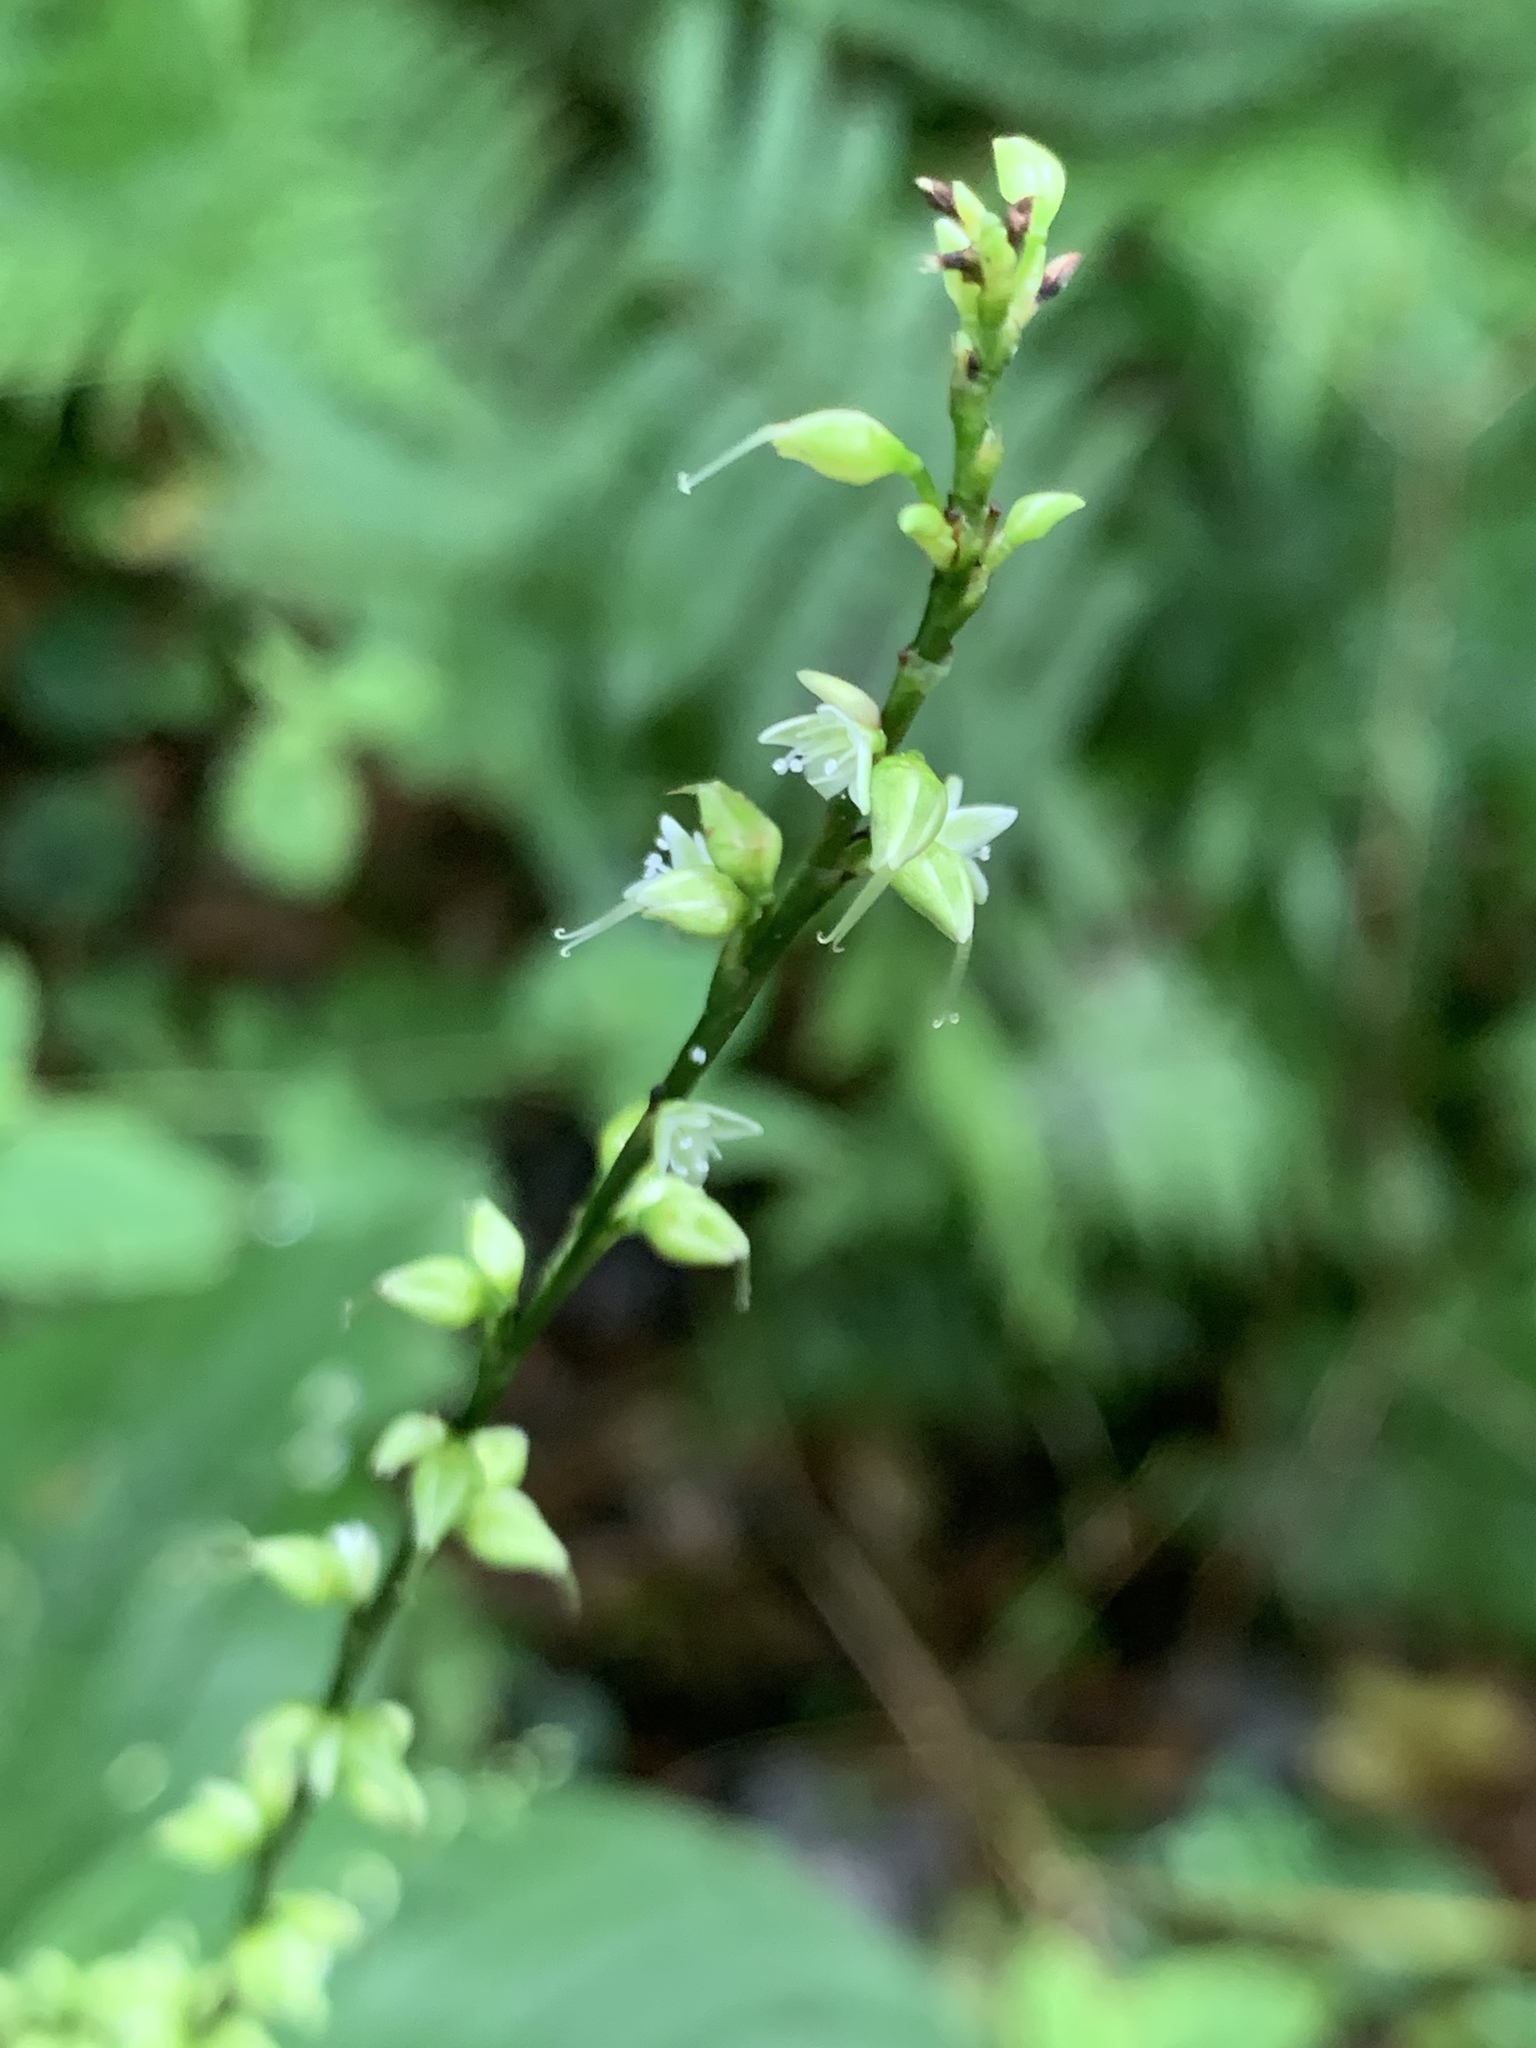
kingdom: Plantae
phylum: Tracheophyta
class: Magnoliopsida
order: Caryophyllales
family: Polygonaceae
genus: Persicaria
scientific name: Persicaria virginiana
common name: Jumpseed
